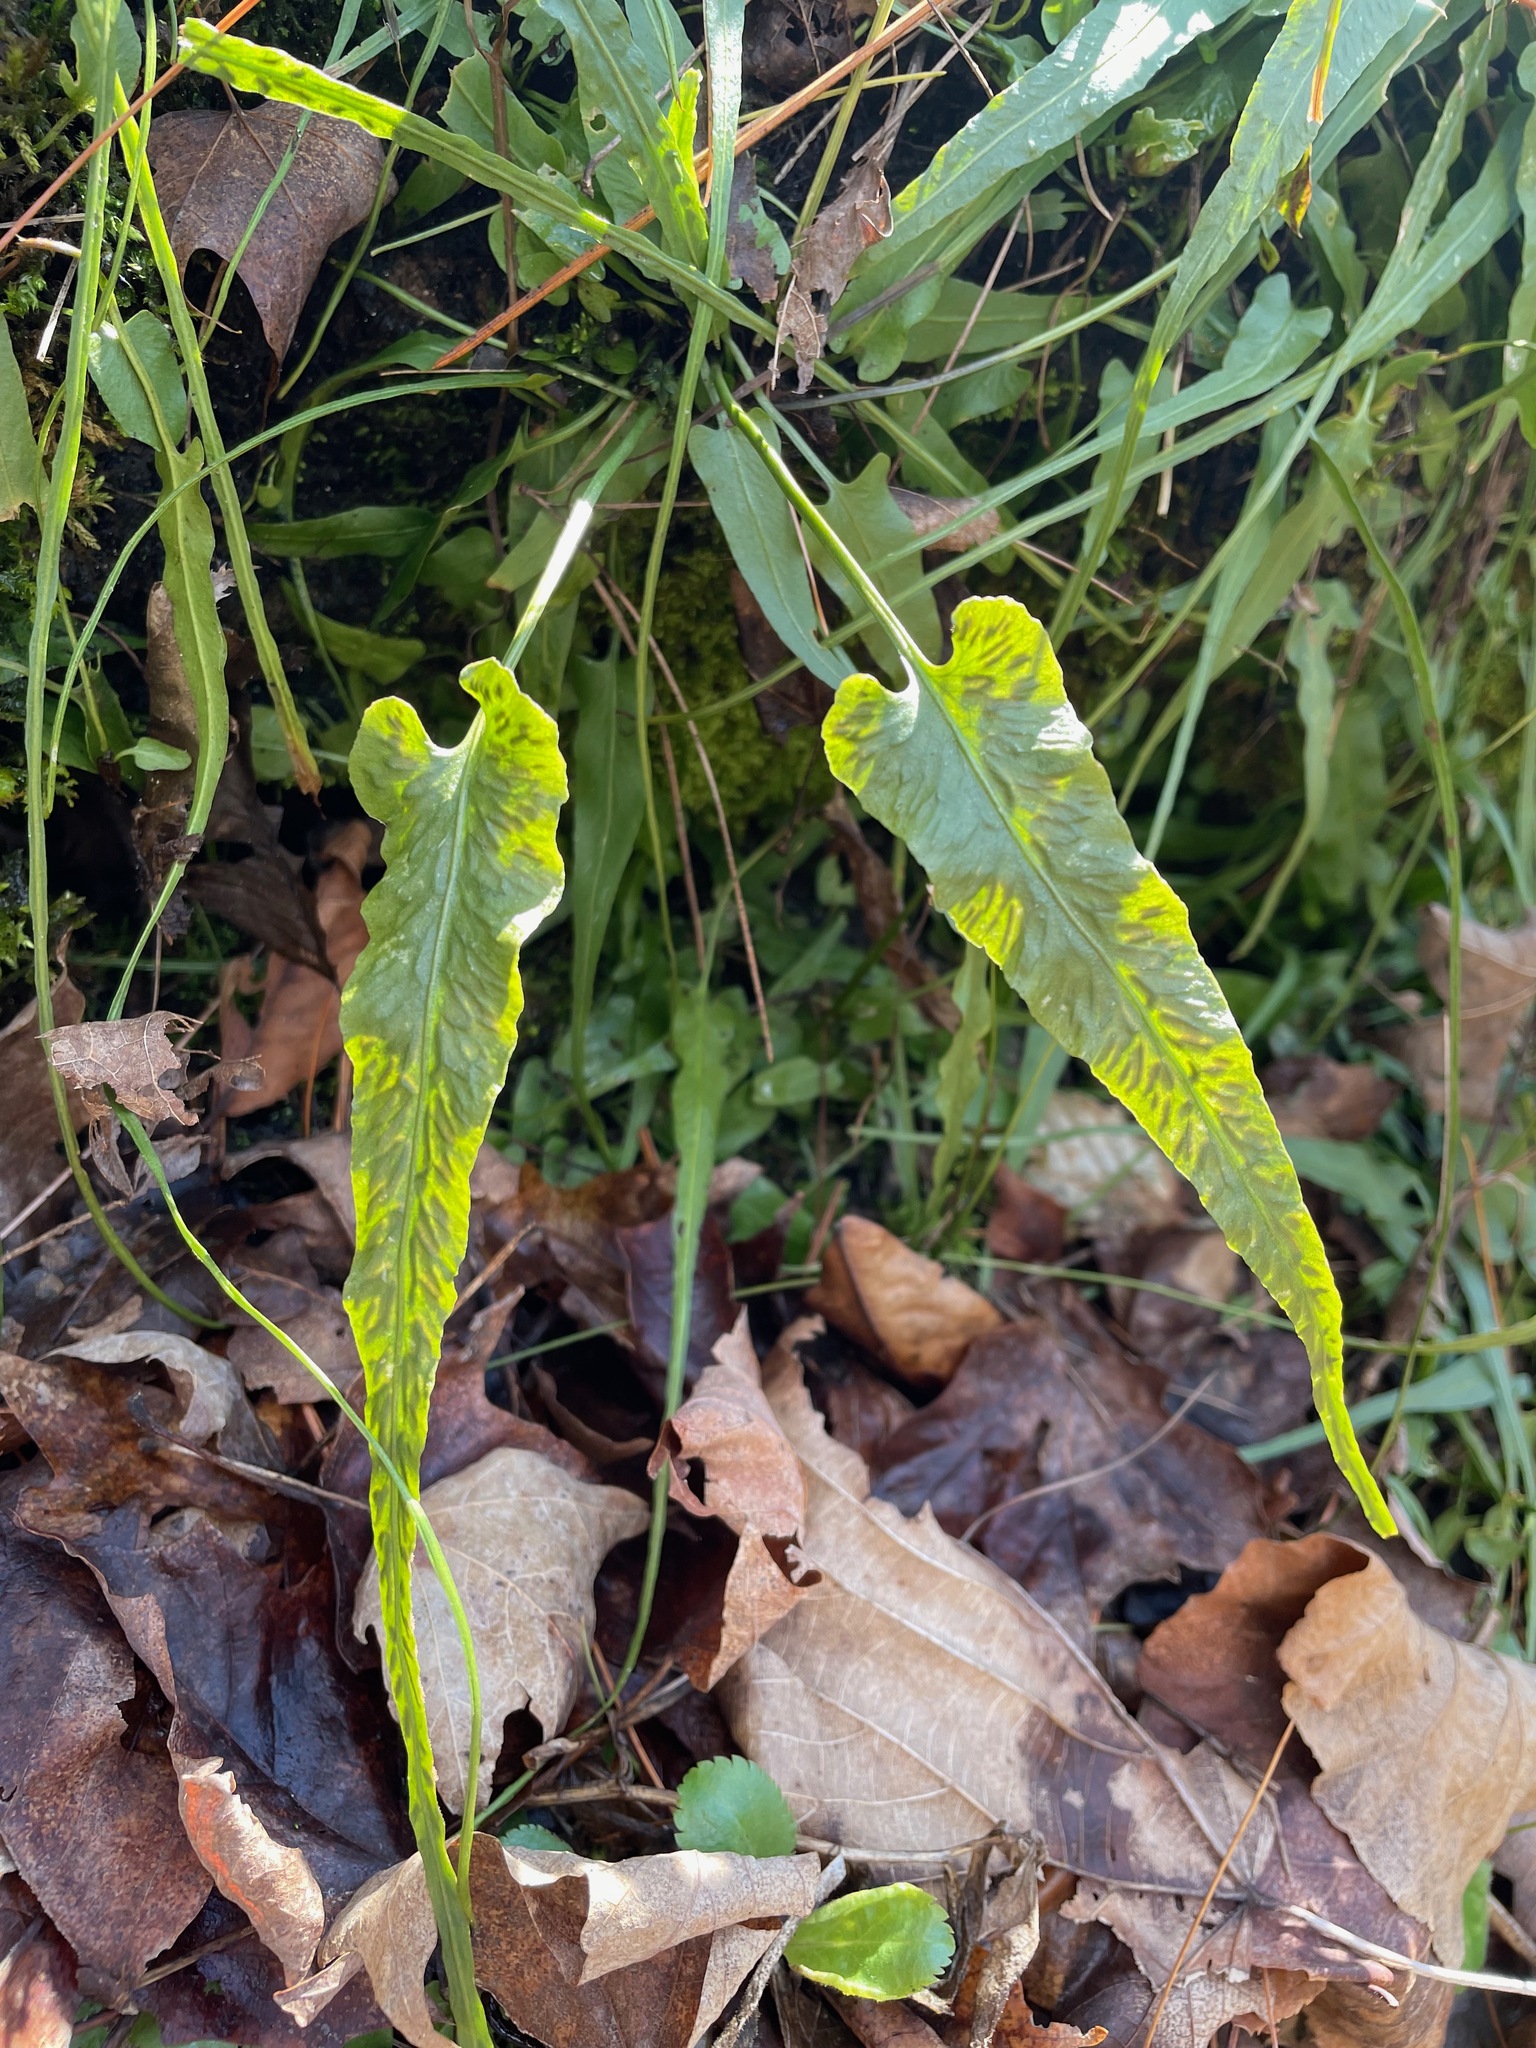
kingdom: Plantae
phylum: Tracheophyta
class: Polypodiopsida
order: Polypodiales
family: Aspleniaceae
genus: Asplenium
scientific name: Asplenium rhizophyllum
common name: Walking fern
